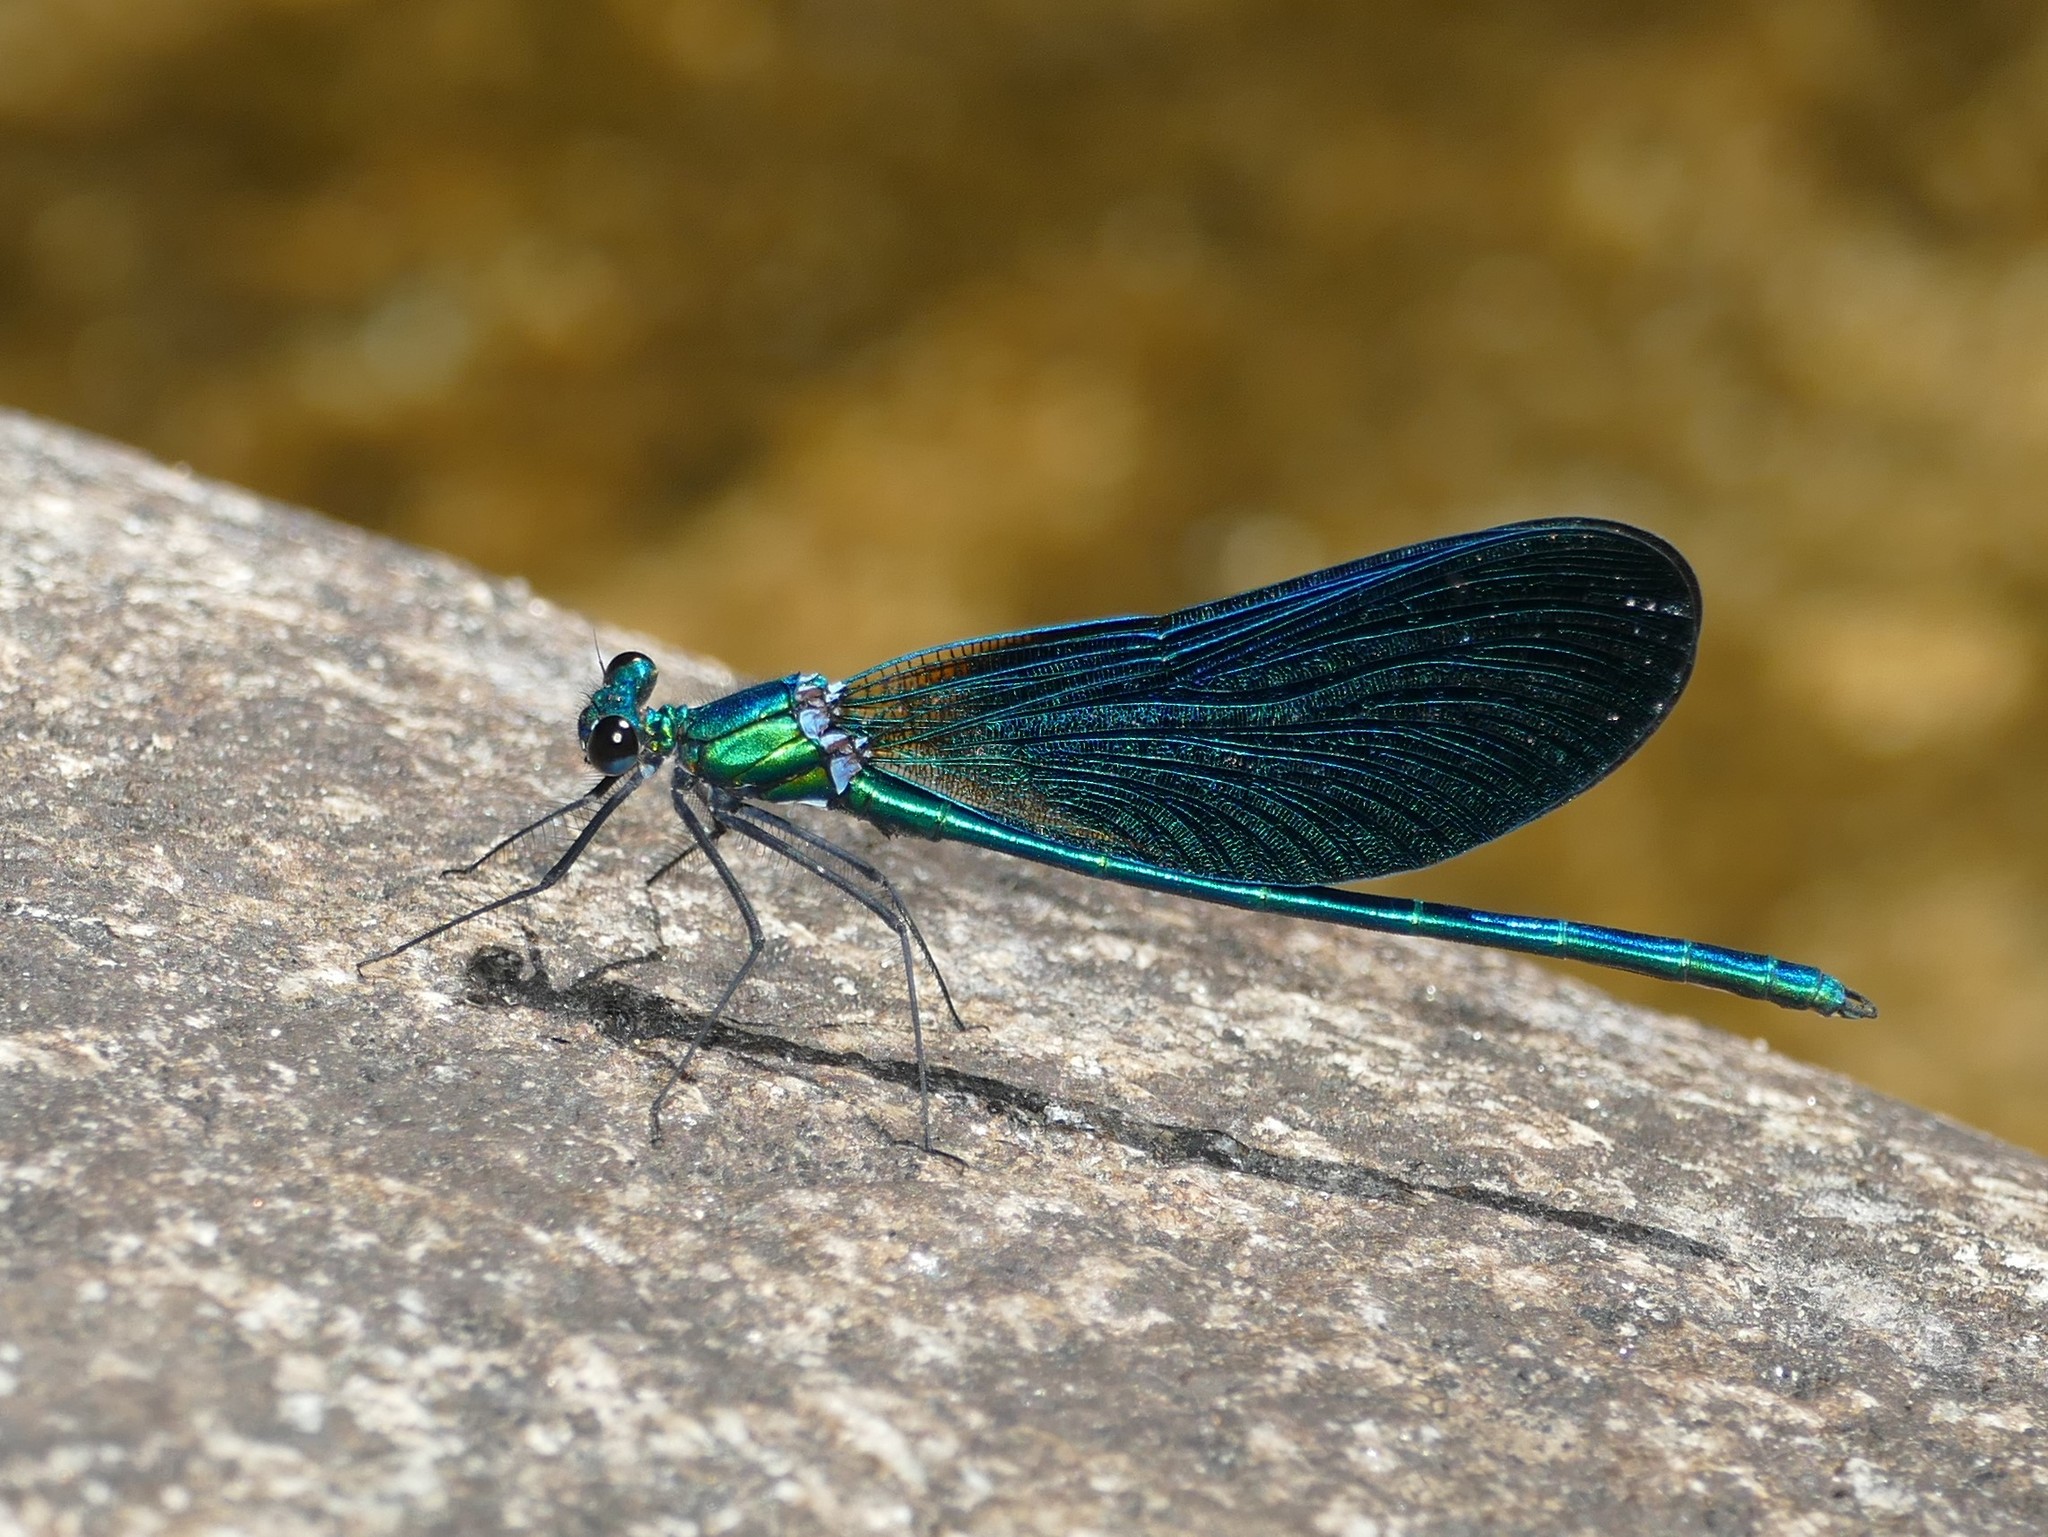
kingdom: Animalia
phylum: Arthropoda
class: Insecta
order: Odonata
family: Calopterygidae
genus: Calopteryx
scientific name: Calopteryx virgo
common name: Beautiful demoiselle
